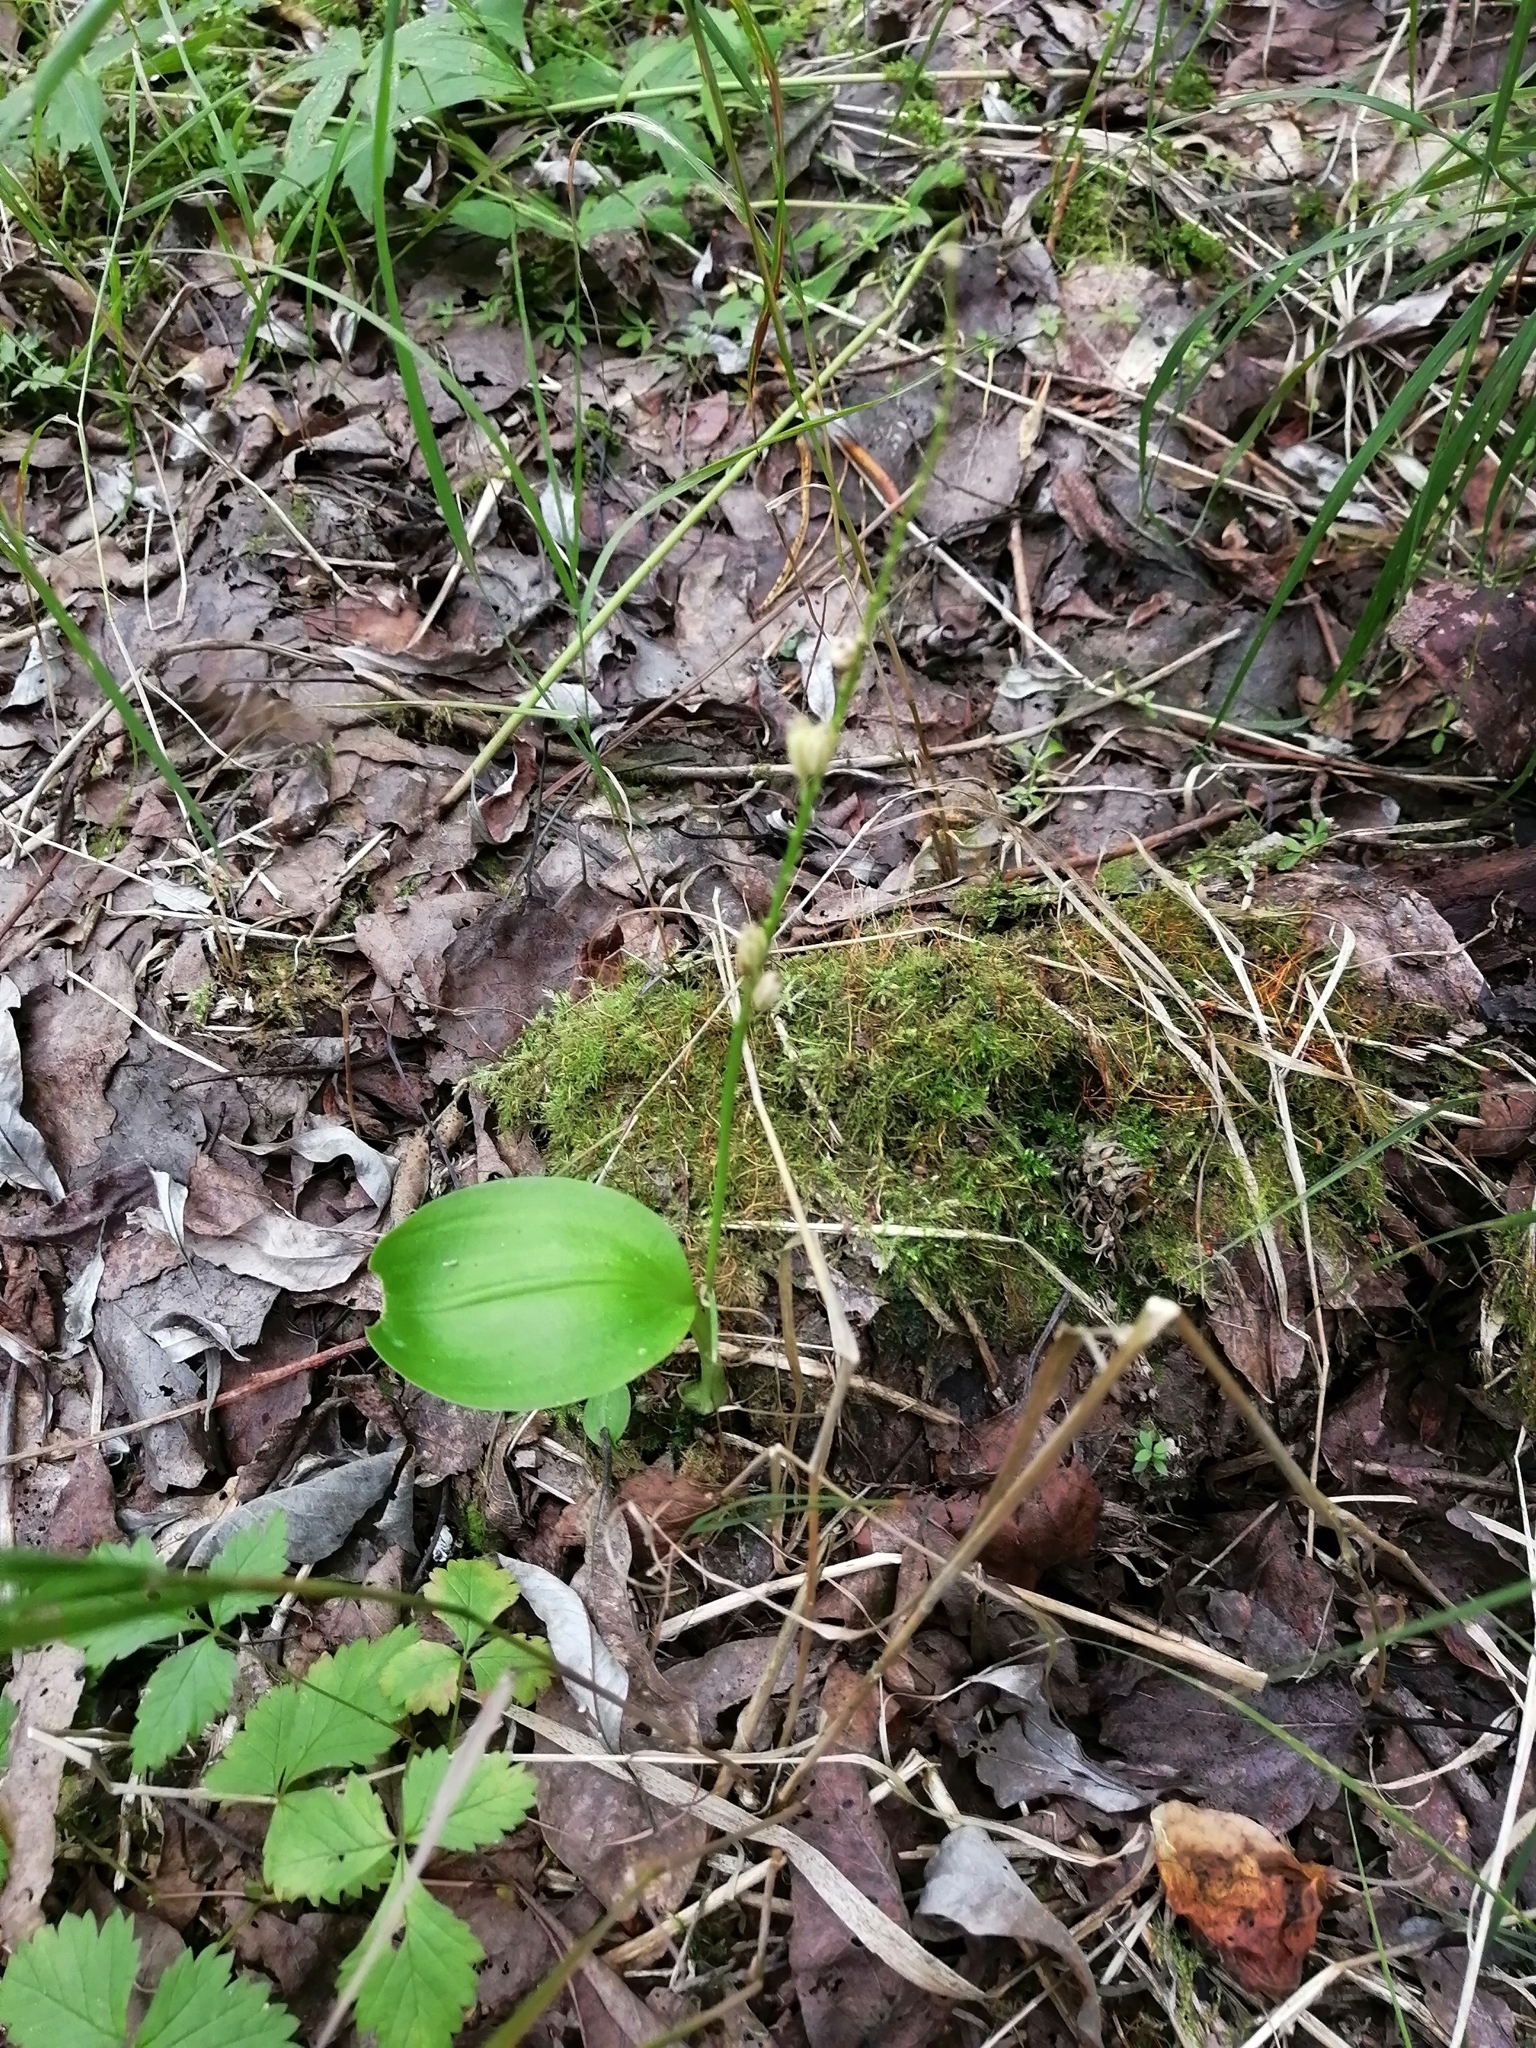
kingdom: Plantae
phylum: Tracheophyta
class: Liliopsida
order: Asparagales
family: Orchidaceae
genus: Malaxis
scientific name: Malaxis monophyllos
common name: White adder's-mouth
